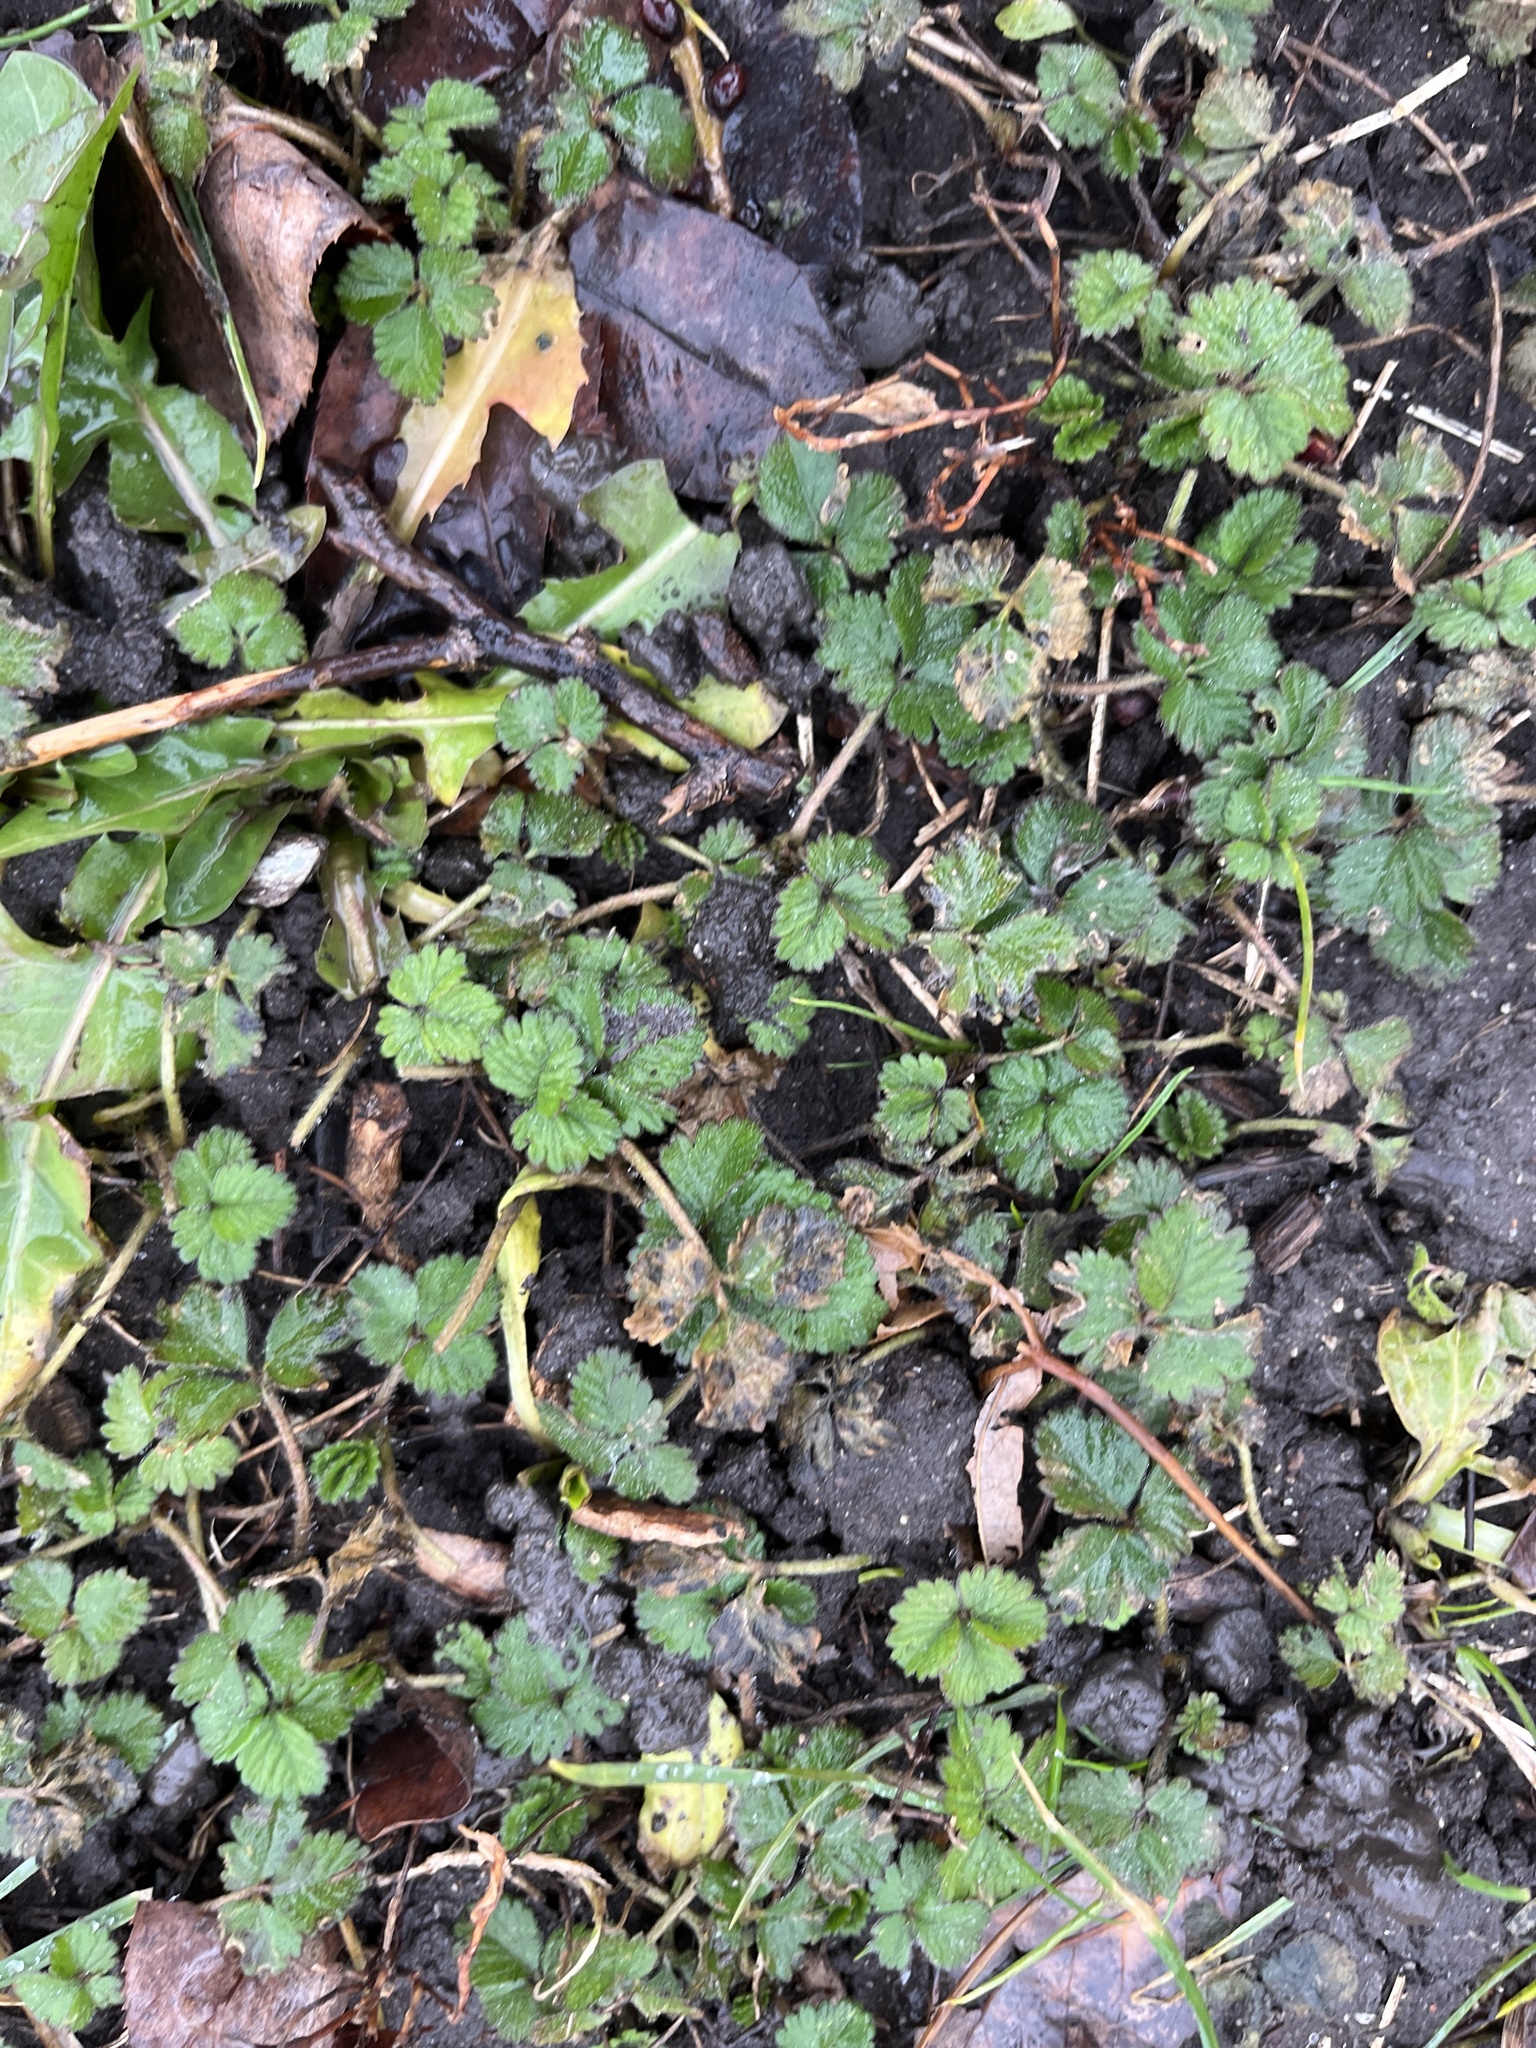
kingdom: Plantae
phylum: Tracheophyta
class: Magnoliopsida
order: Rosales
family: Rosaceae
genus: Potentilla
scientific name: Potentilla indica
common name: Yellow-flowered strawberry
